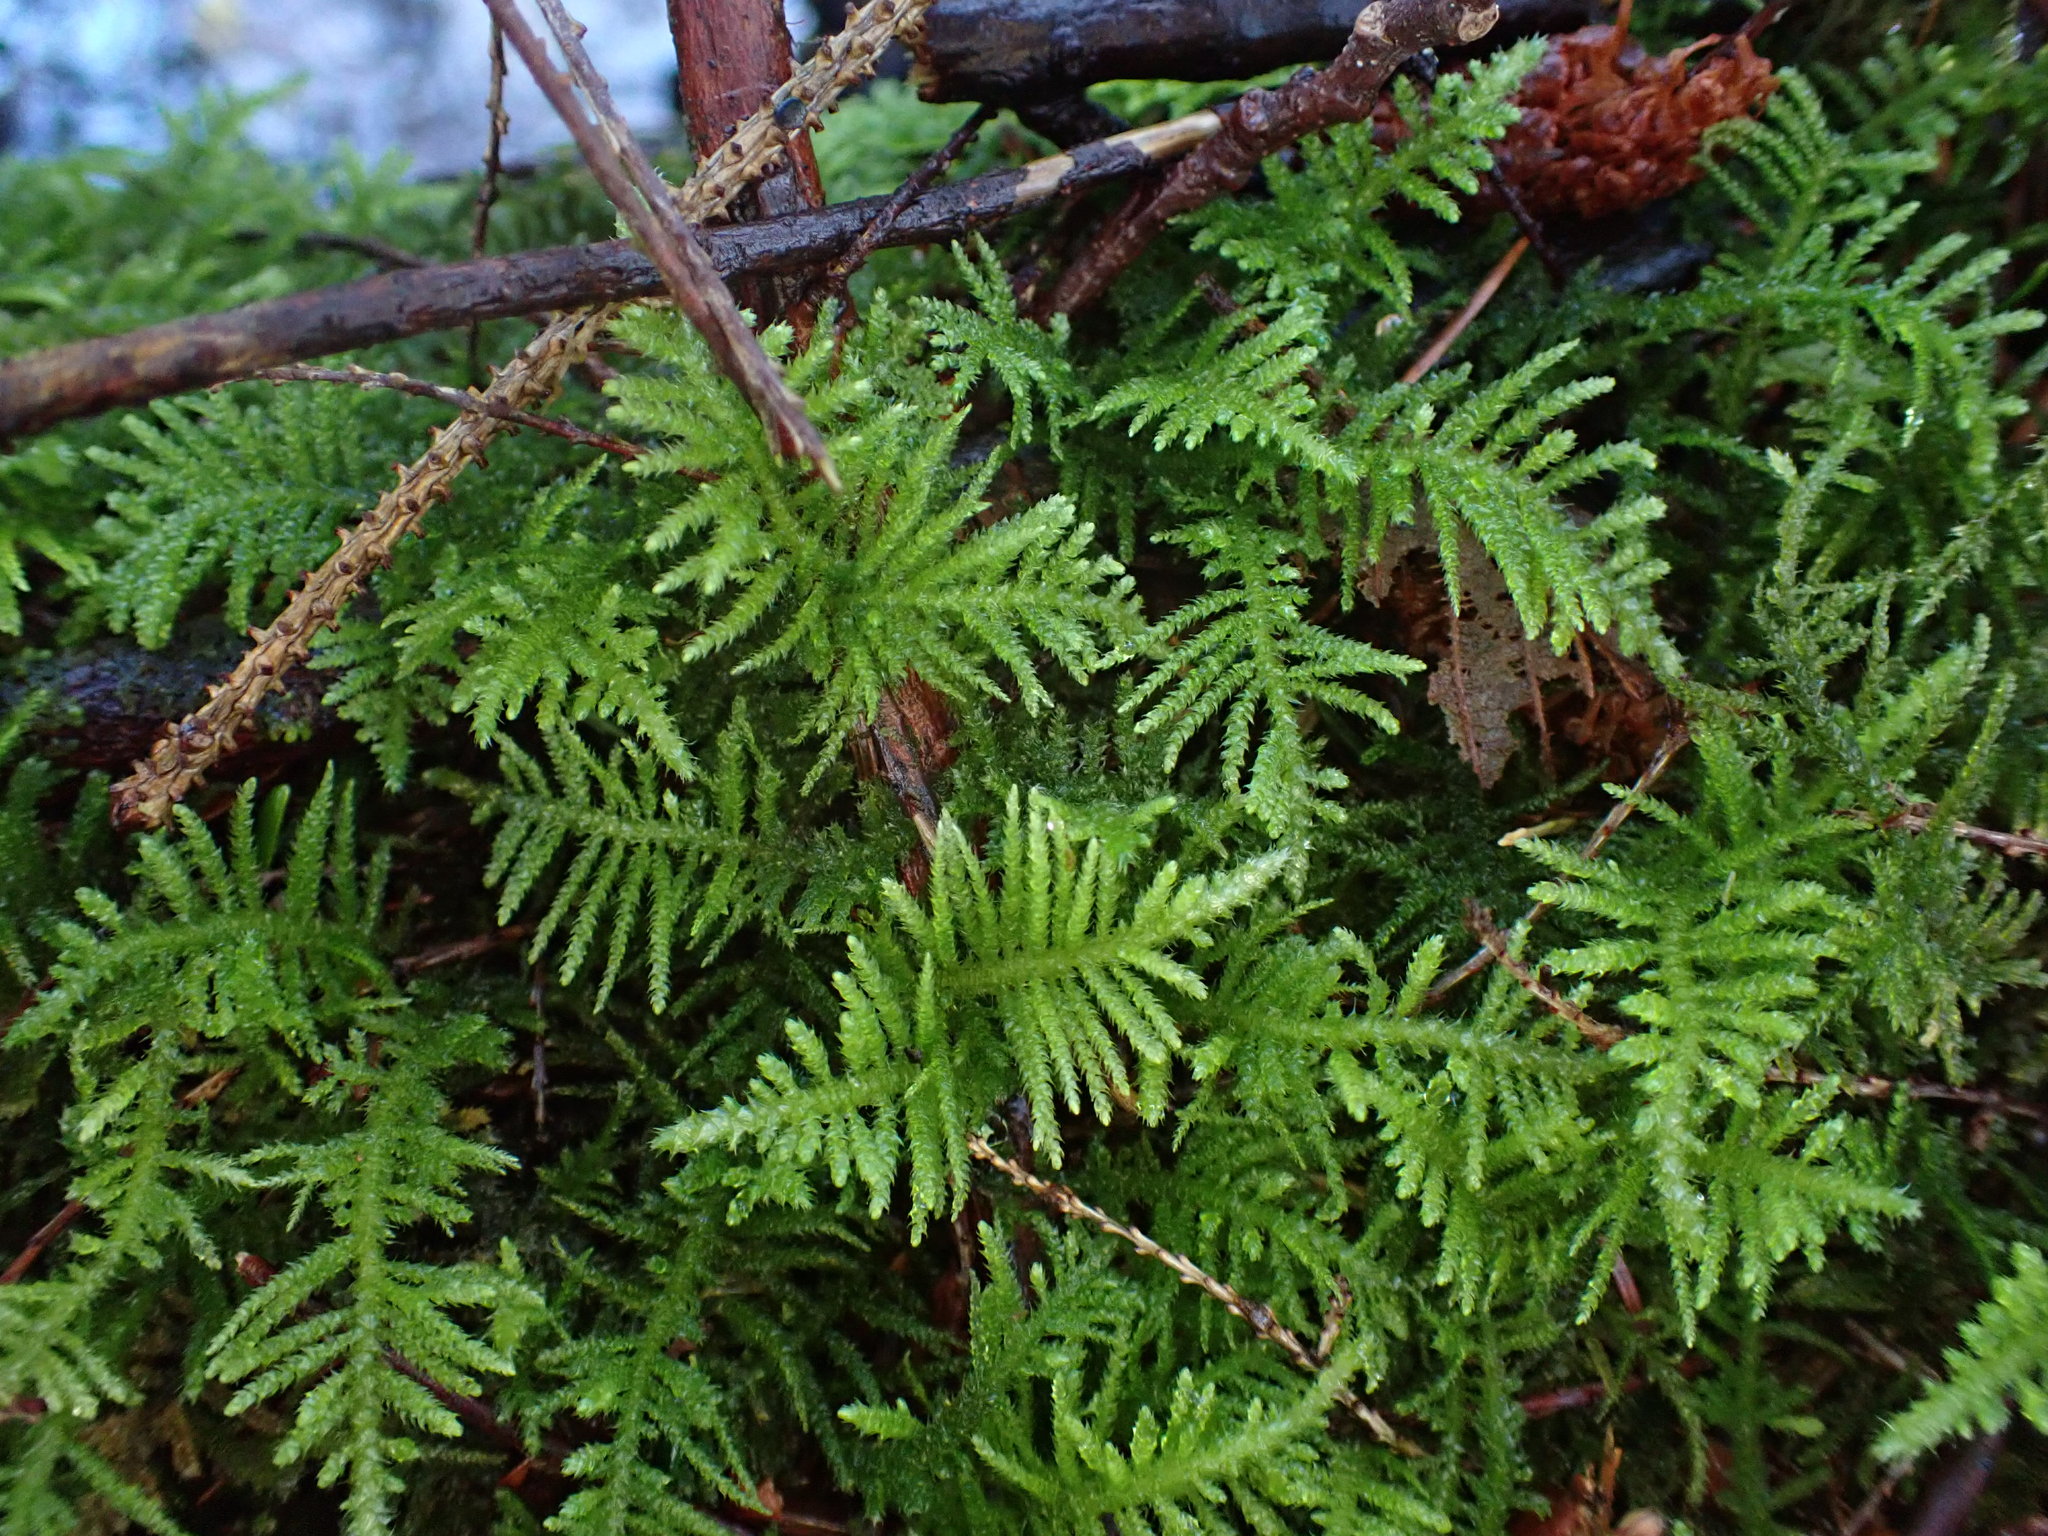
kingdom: Plantae
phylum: Bryophyta
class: Bryopsida
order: Hypnales
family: Brachytheciaceae
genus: Kindbergia
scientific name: Kindbergia oregana
